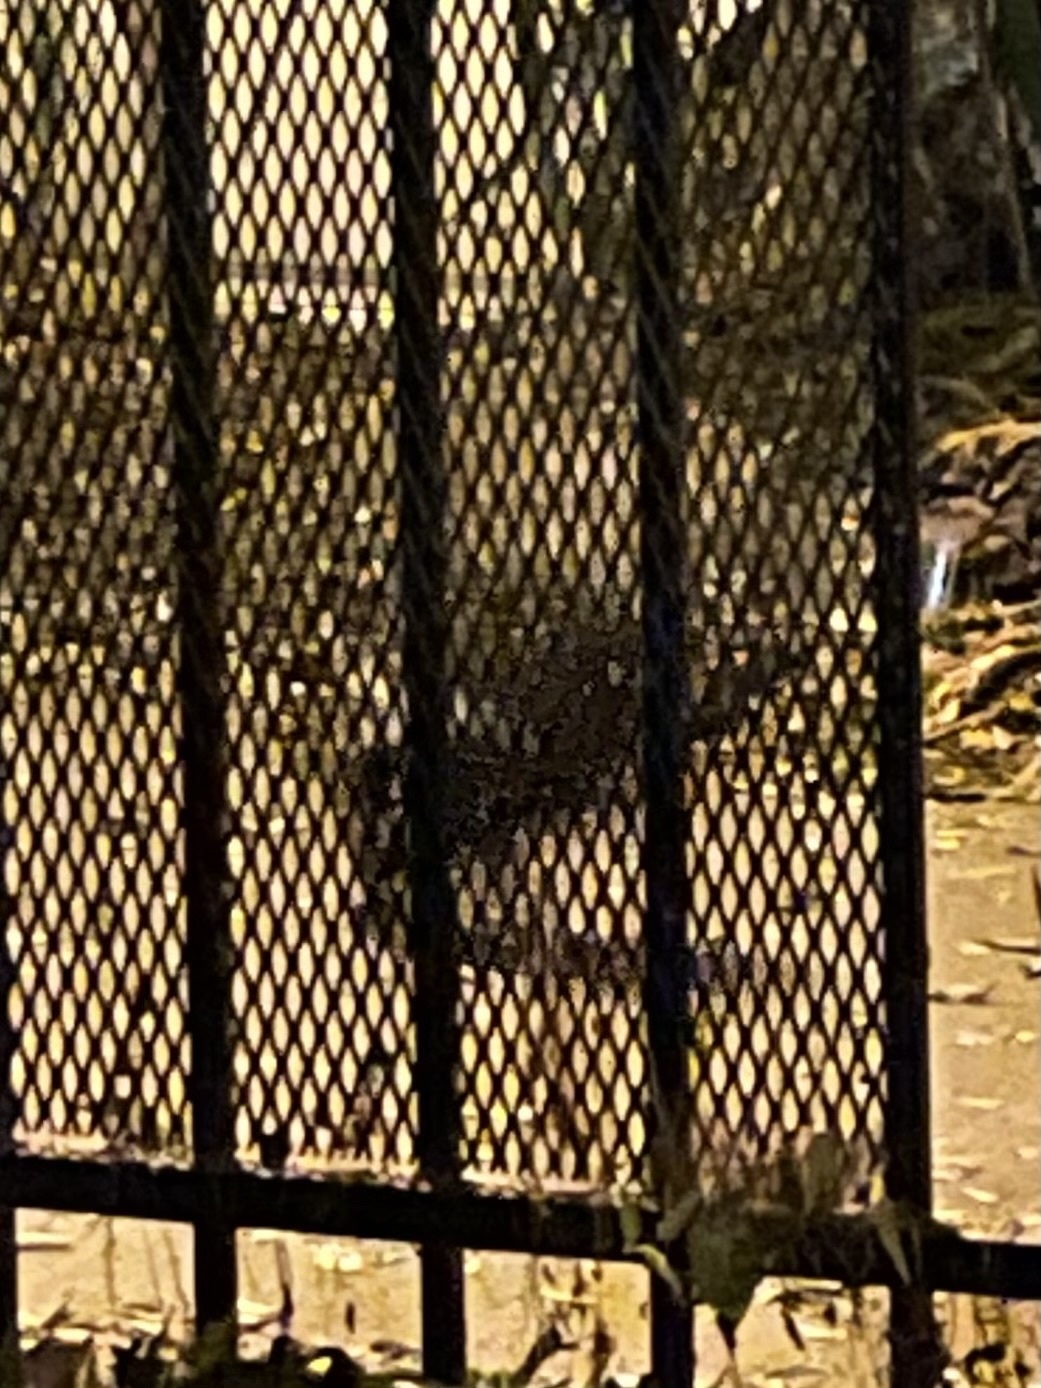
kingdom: Animalia
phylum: Chordata
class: Mammalia
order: Carnivora
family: Mephitidae
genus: Mephitis
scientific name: Mephitis mephitis
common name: Striped skunk
